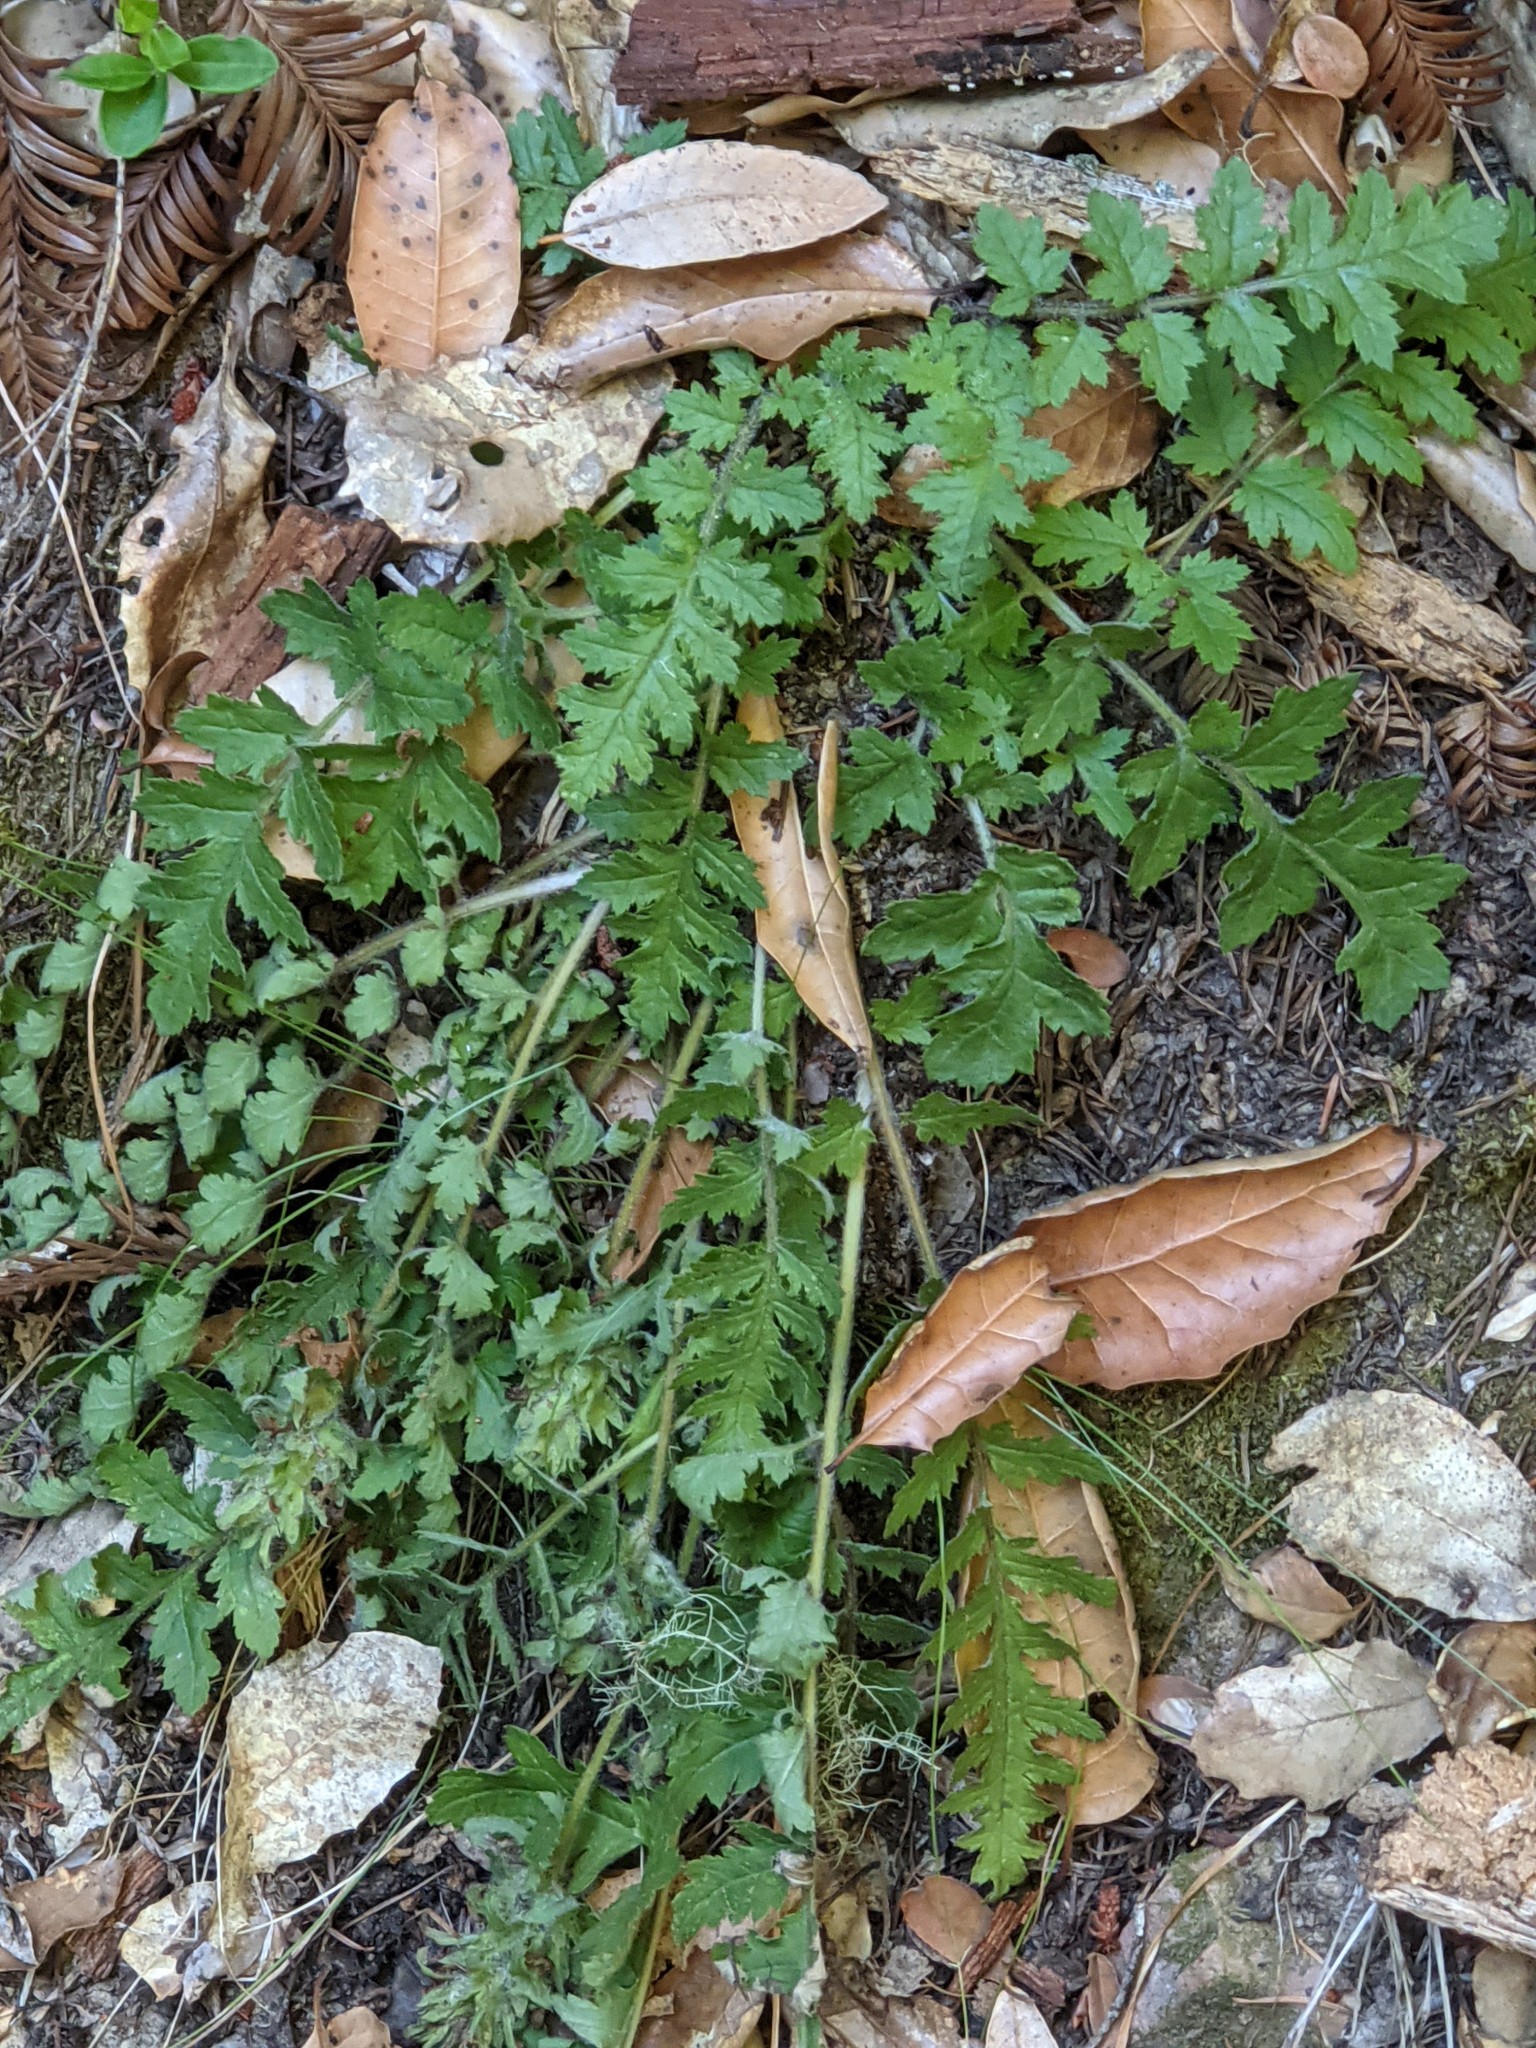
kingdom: Plantae
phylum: Tracheophyta
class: Magnoliopsida
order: Lamiales
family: Orobanchaceae
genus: Pedicularis
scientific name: Pedicularis dudleyi
